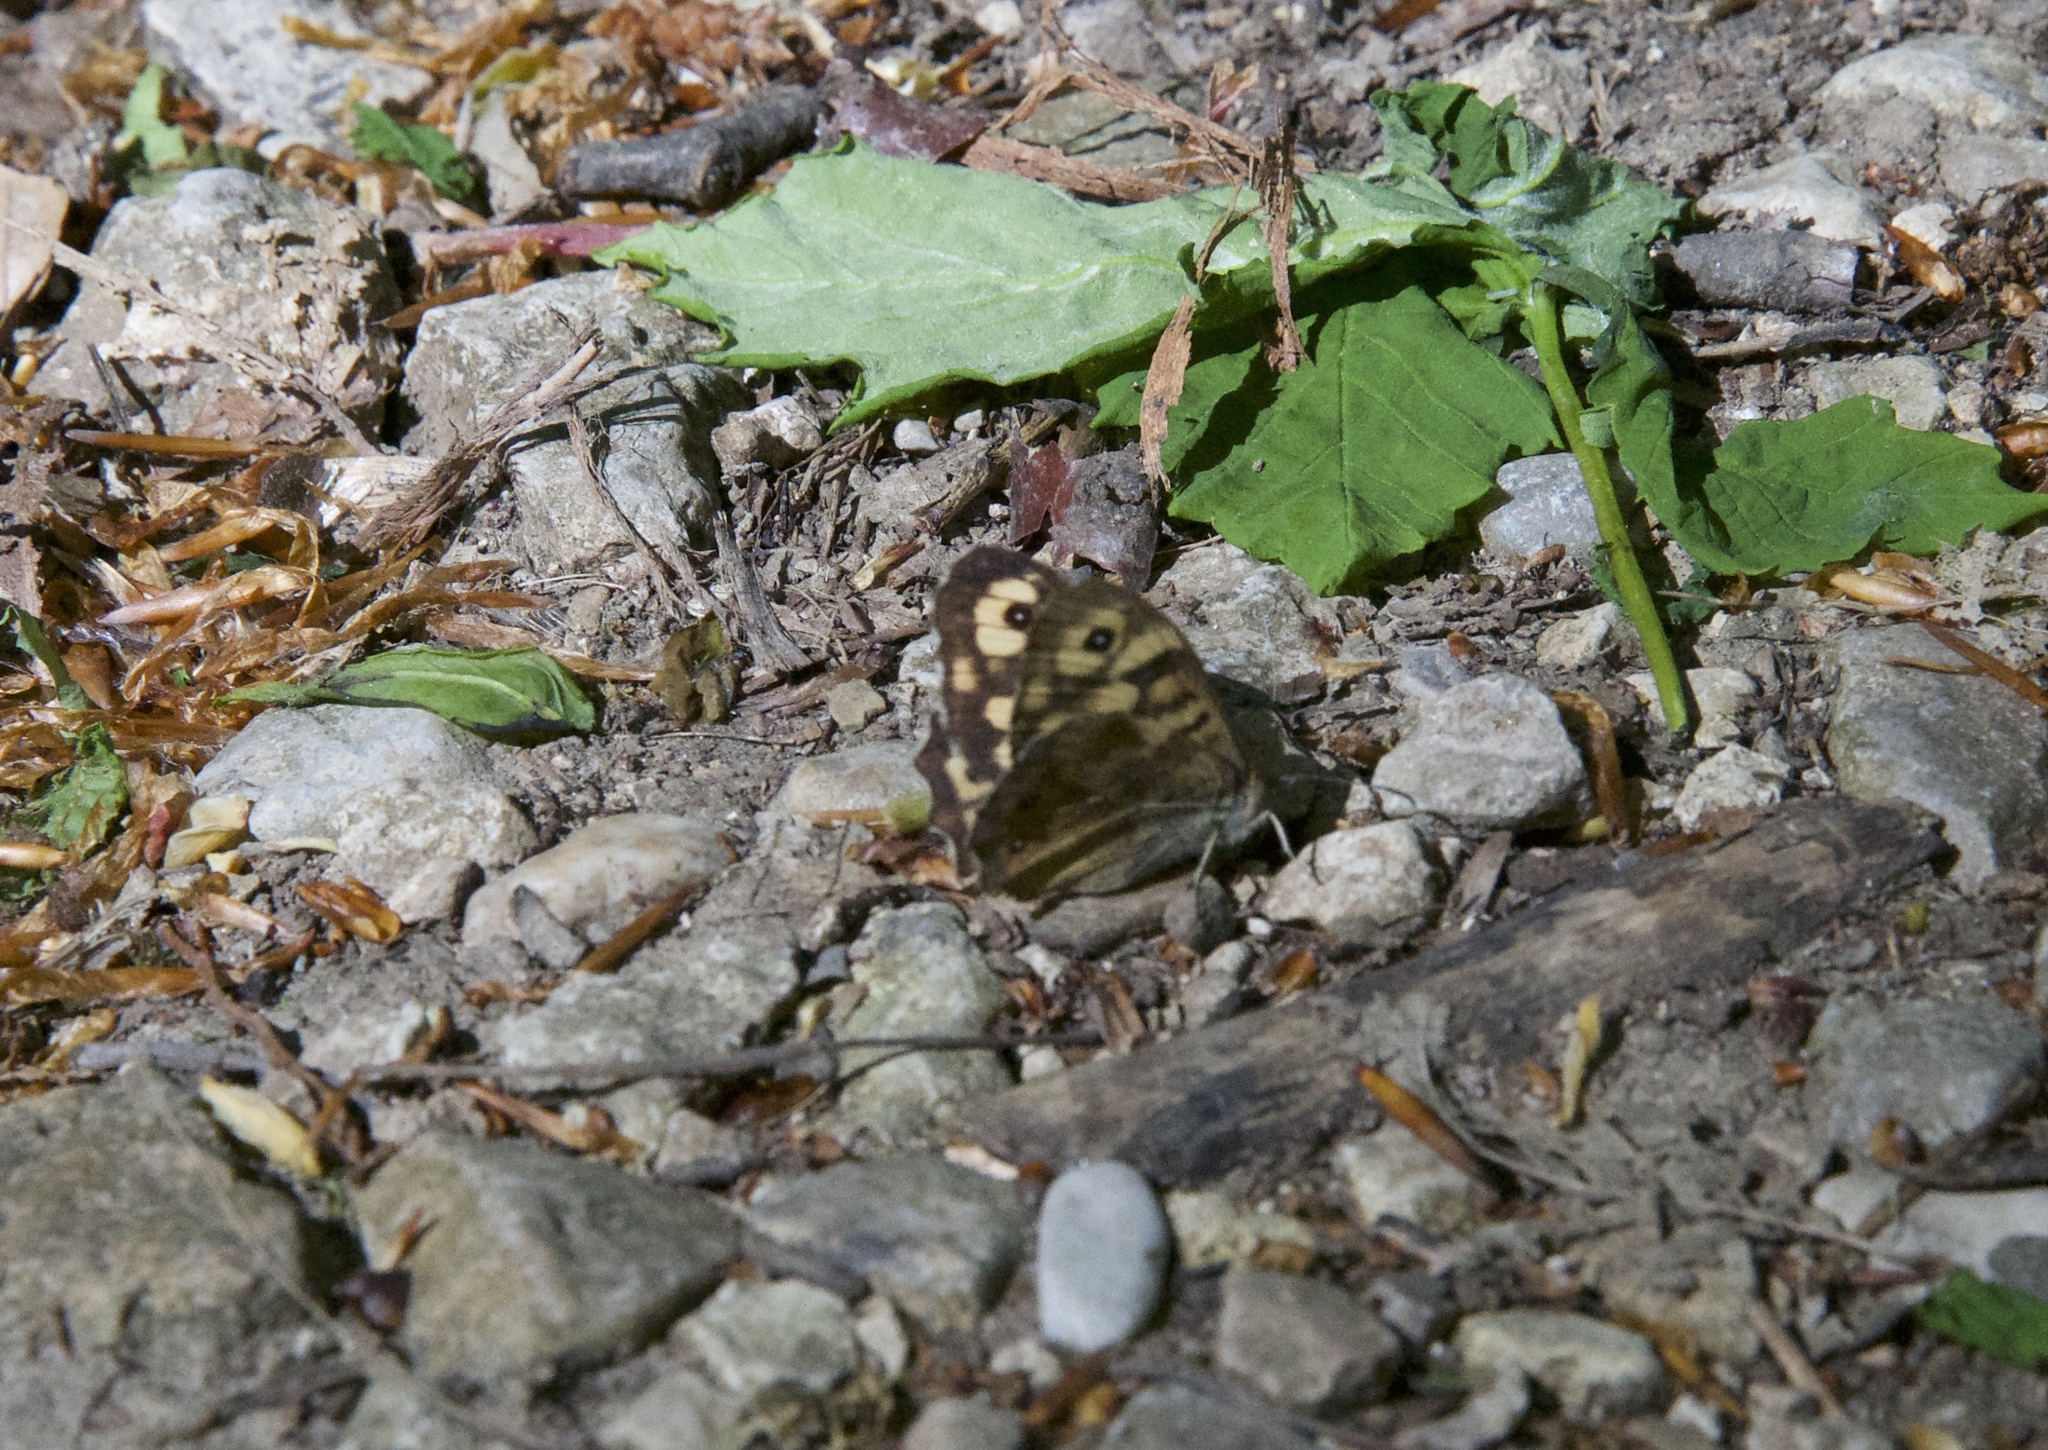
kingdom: Animalia
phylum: Arthropoda
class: Insecta
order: Lepidoptera
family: Nymphalidae
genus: Pararge
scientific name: Pararge aegeria
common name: Speckled wood
